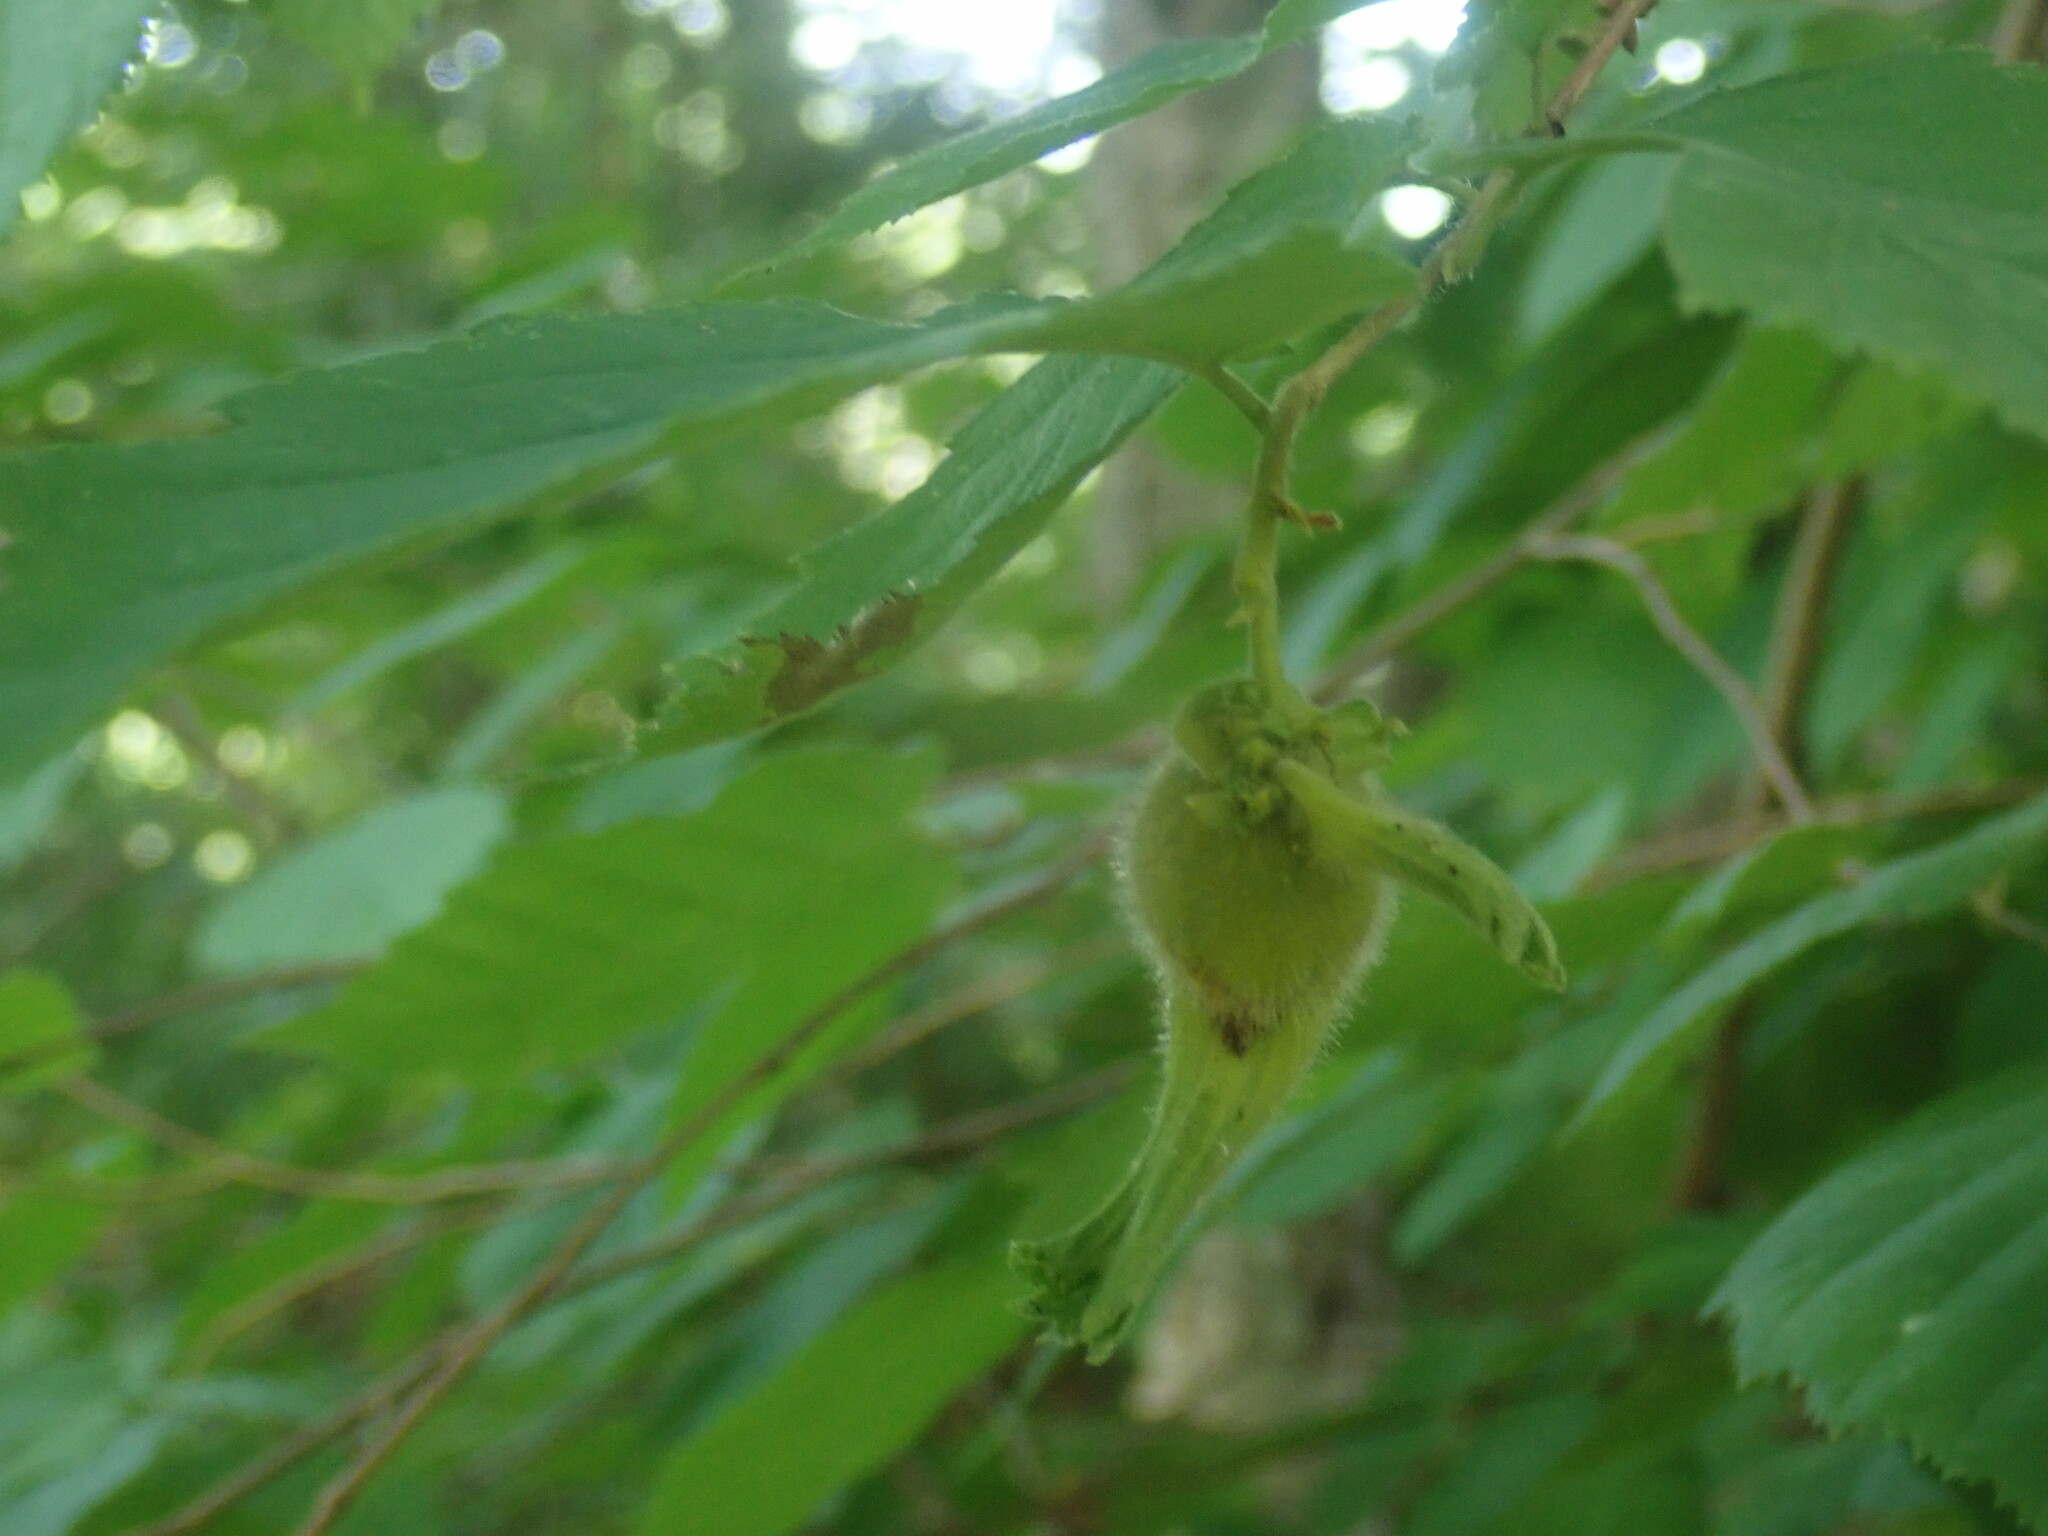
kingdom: Plantae
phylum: Tracheophyta
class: Magnoliopsida
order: Fagales
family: Betulaceae
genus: Corylus
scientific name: Corylus cornuta
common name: Beaked hazel
